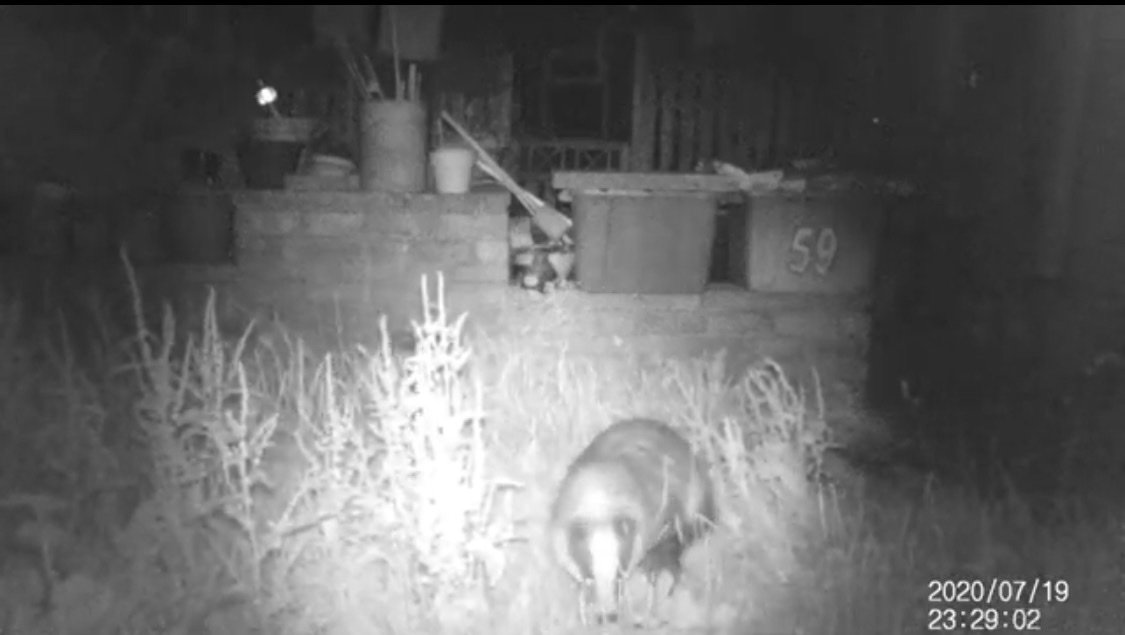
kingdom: Animalia
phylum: Chordata
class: Mammalia
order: Carnivora
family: Mustelidae
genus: Meles
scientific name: Meles meles
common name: Eurasian badger
